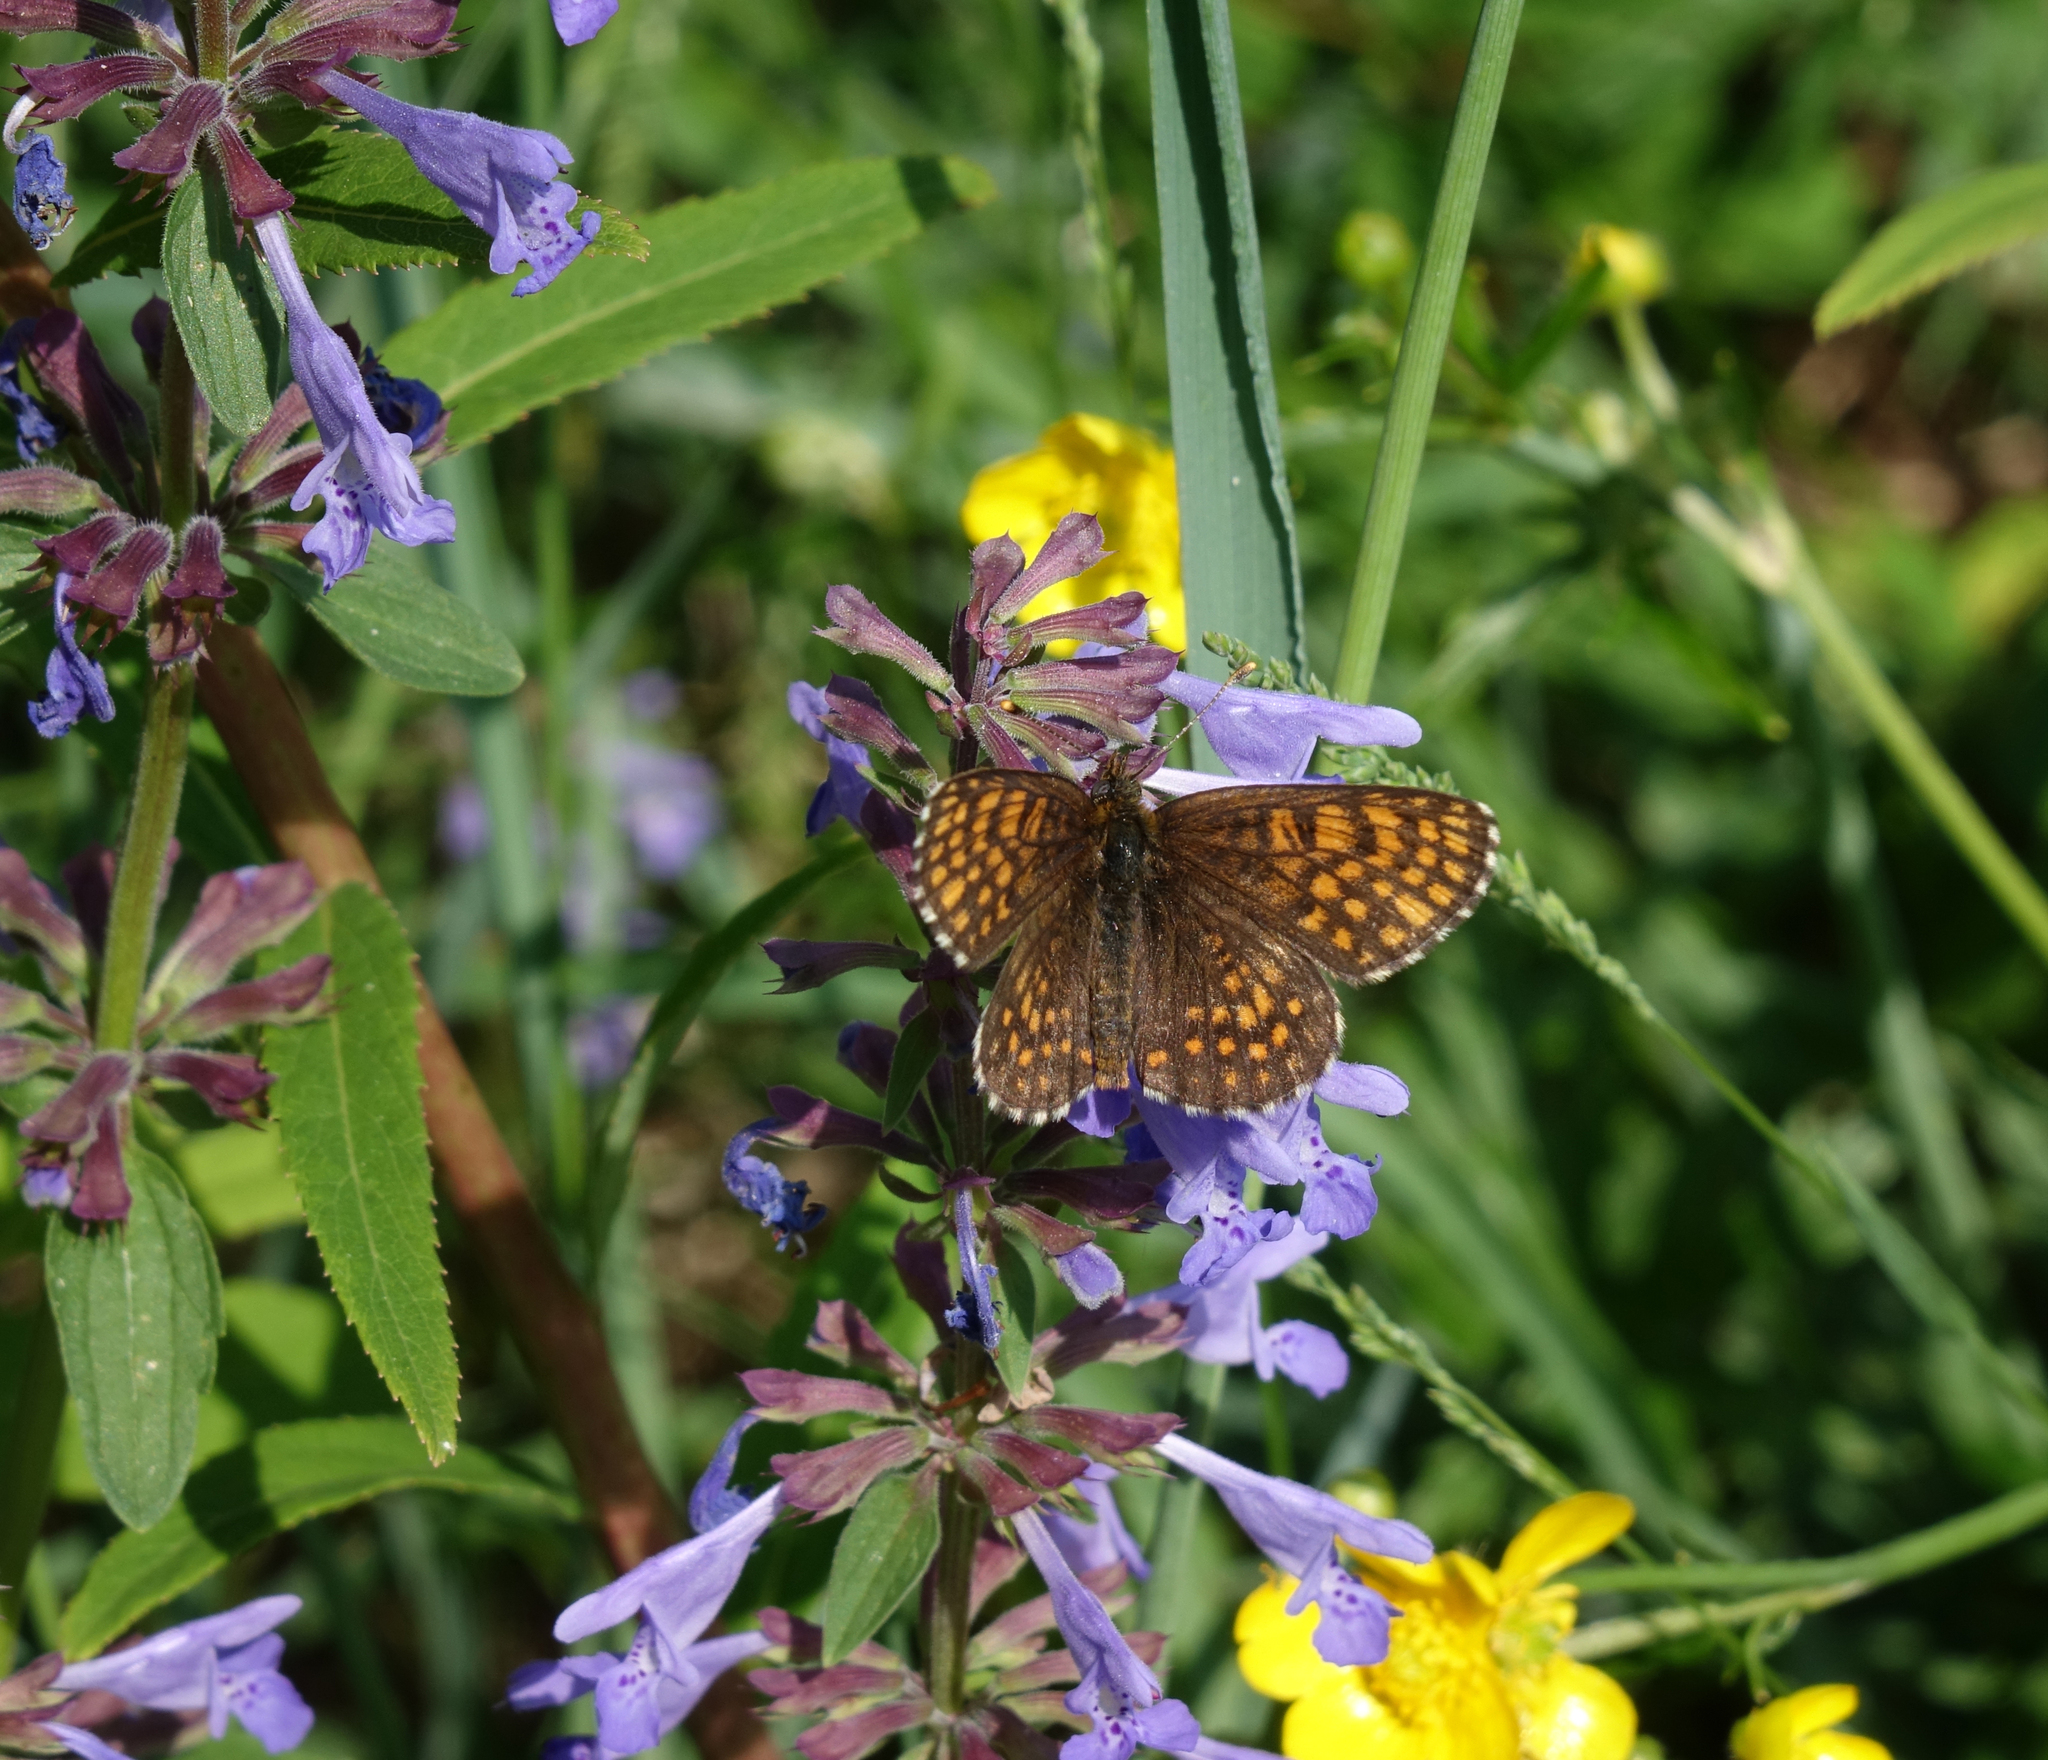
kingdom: Plantae
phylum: Tracheophyta
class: Magnoliopsida
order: Lamiales
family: Lamiaceae
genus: Dracocephalum
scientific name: Dracocephalum nutans
